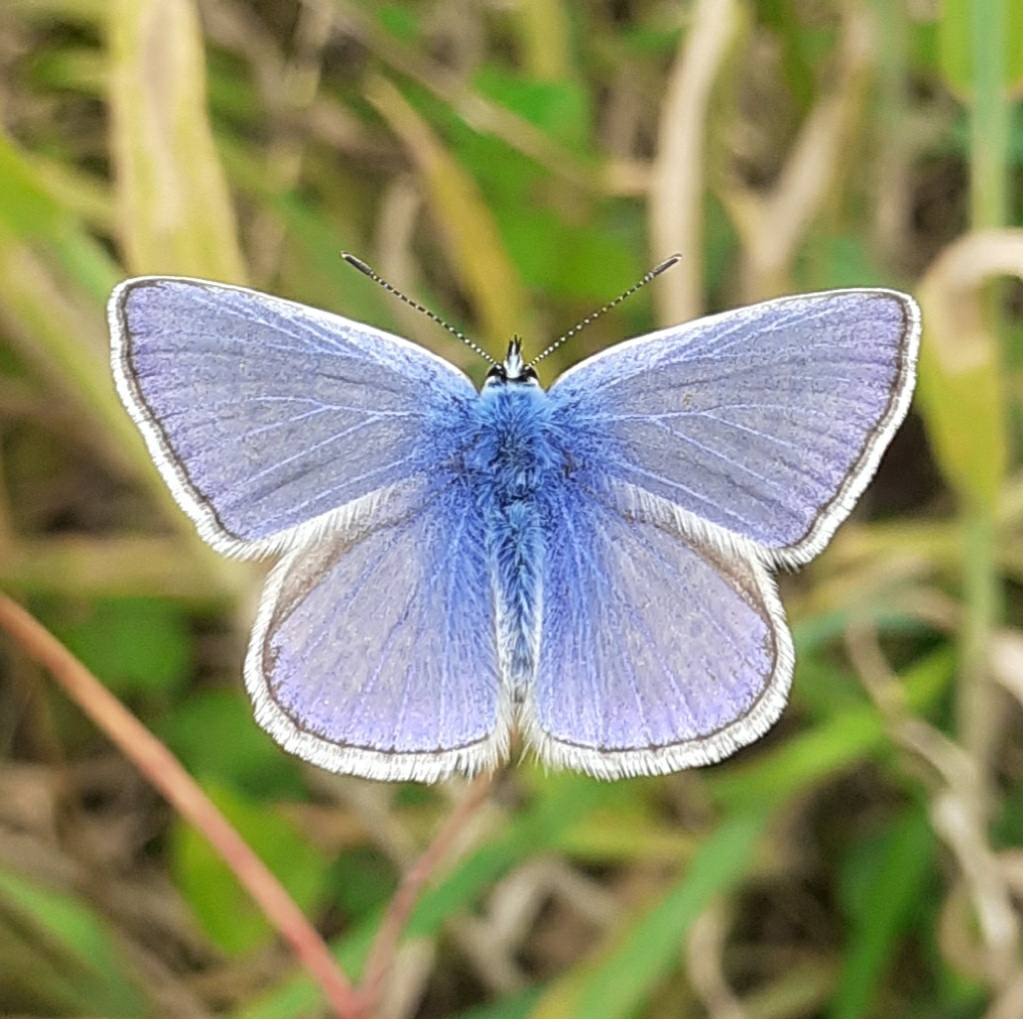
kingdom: Animalia
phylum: Arthropoda
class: Insecta
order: Lepidoptera
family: Lycaenidae
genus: Polyommatus
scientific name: Polyommatus icarus
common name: Common blue
